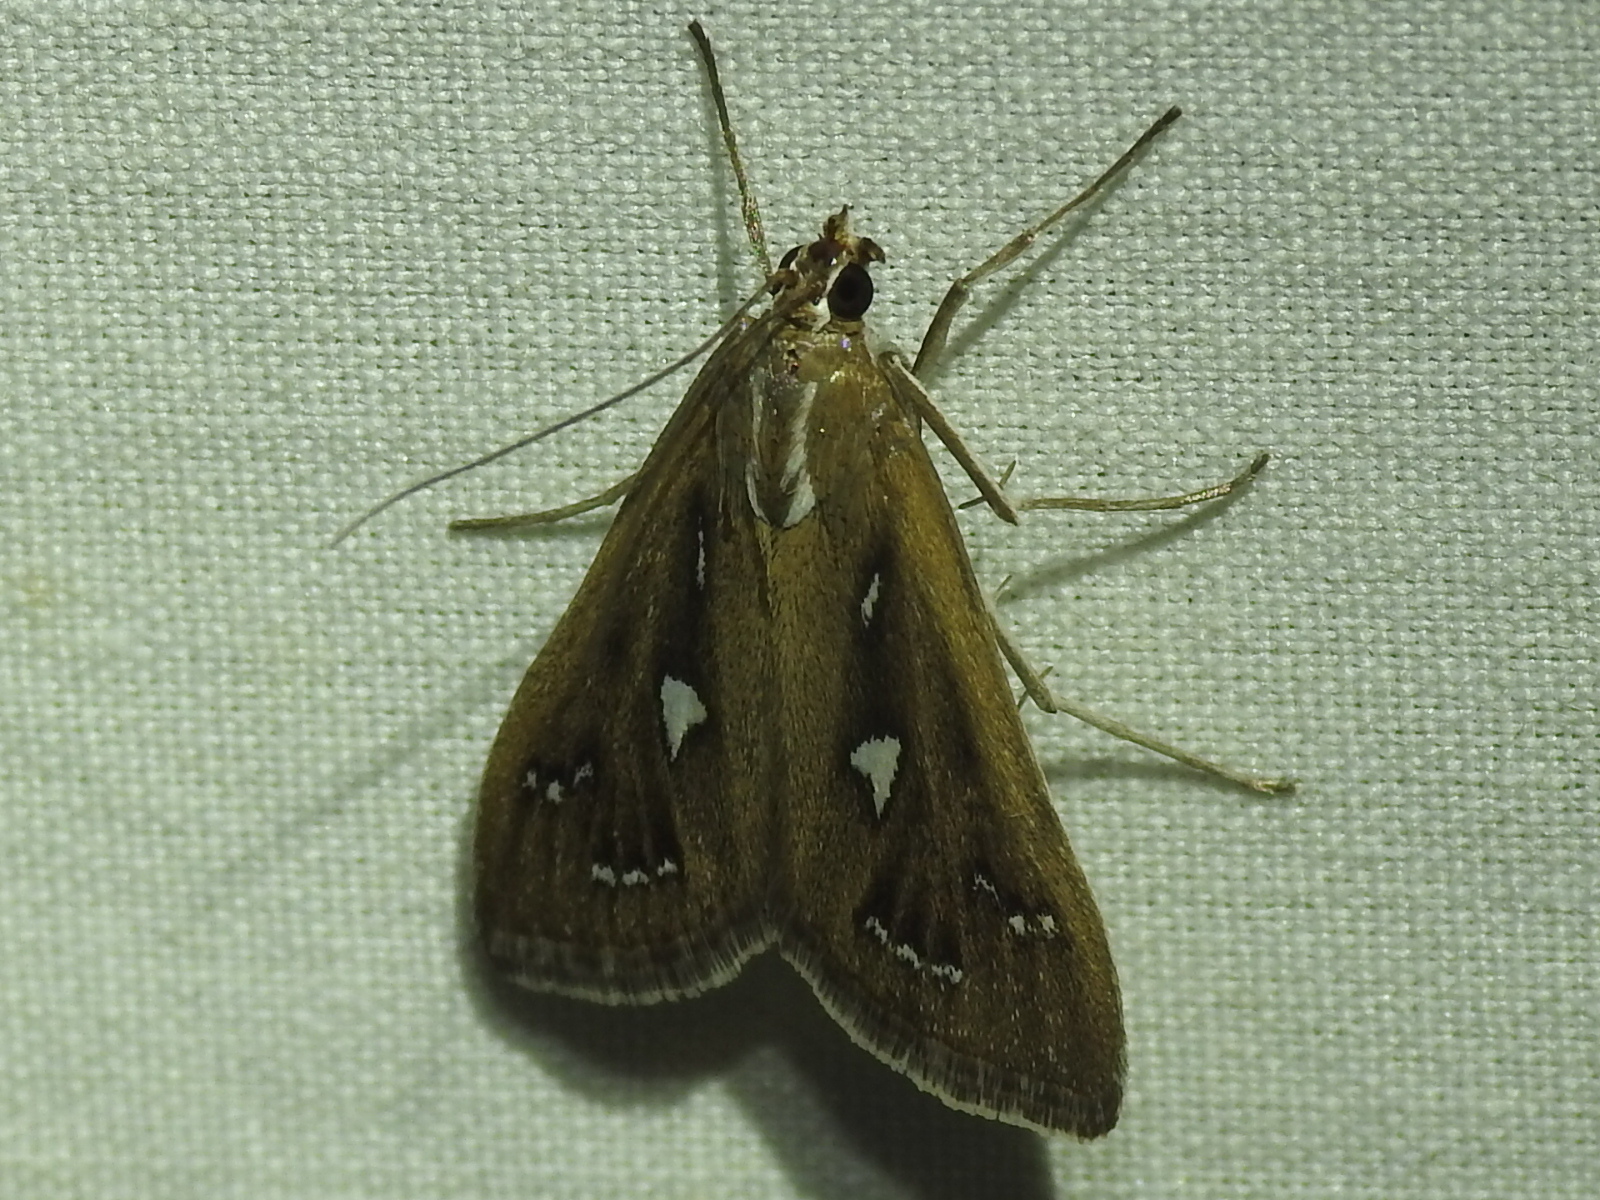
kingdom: Animalia
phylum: Arthropoda
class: Insecta
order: Lepidoptera
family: Crambidae
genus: Diastictis
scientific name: Diastictis fracturalis
